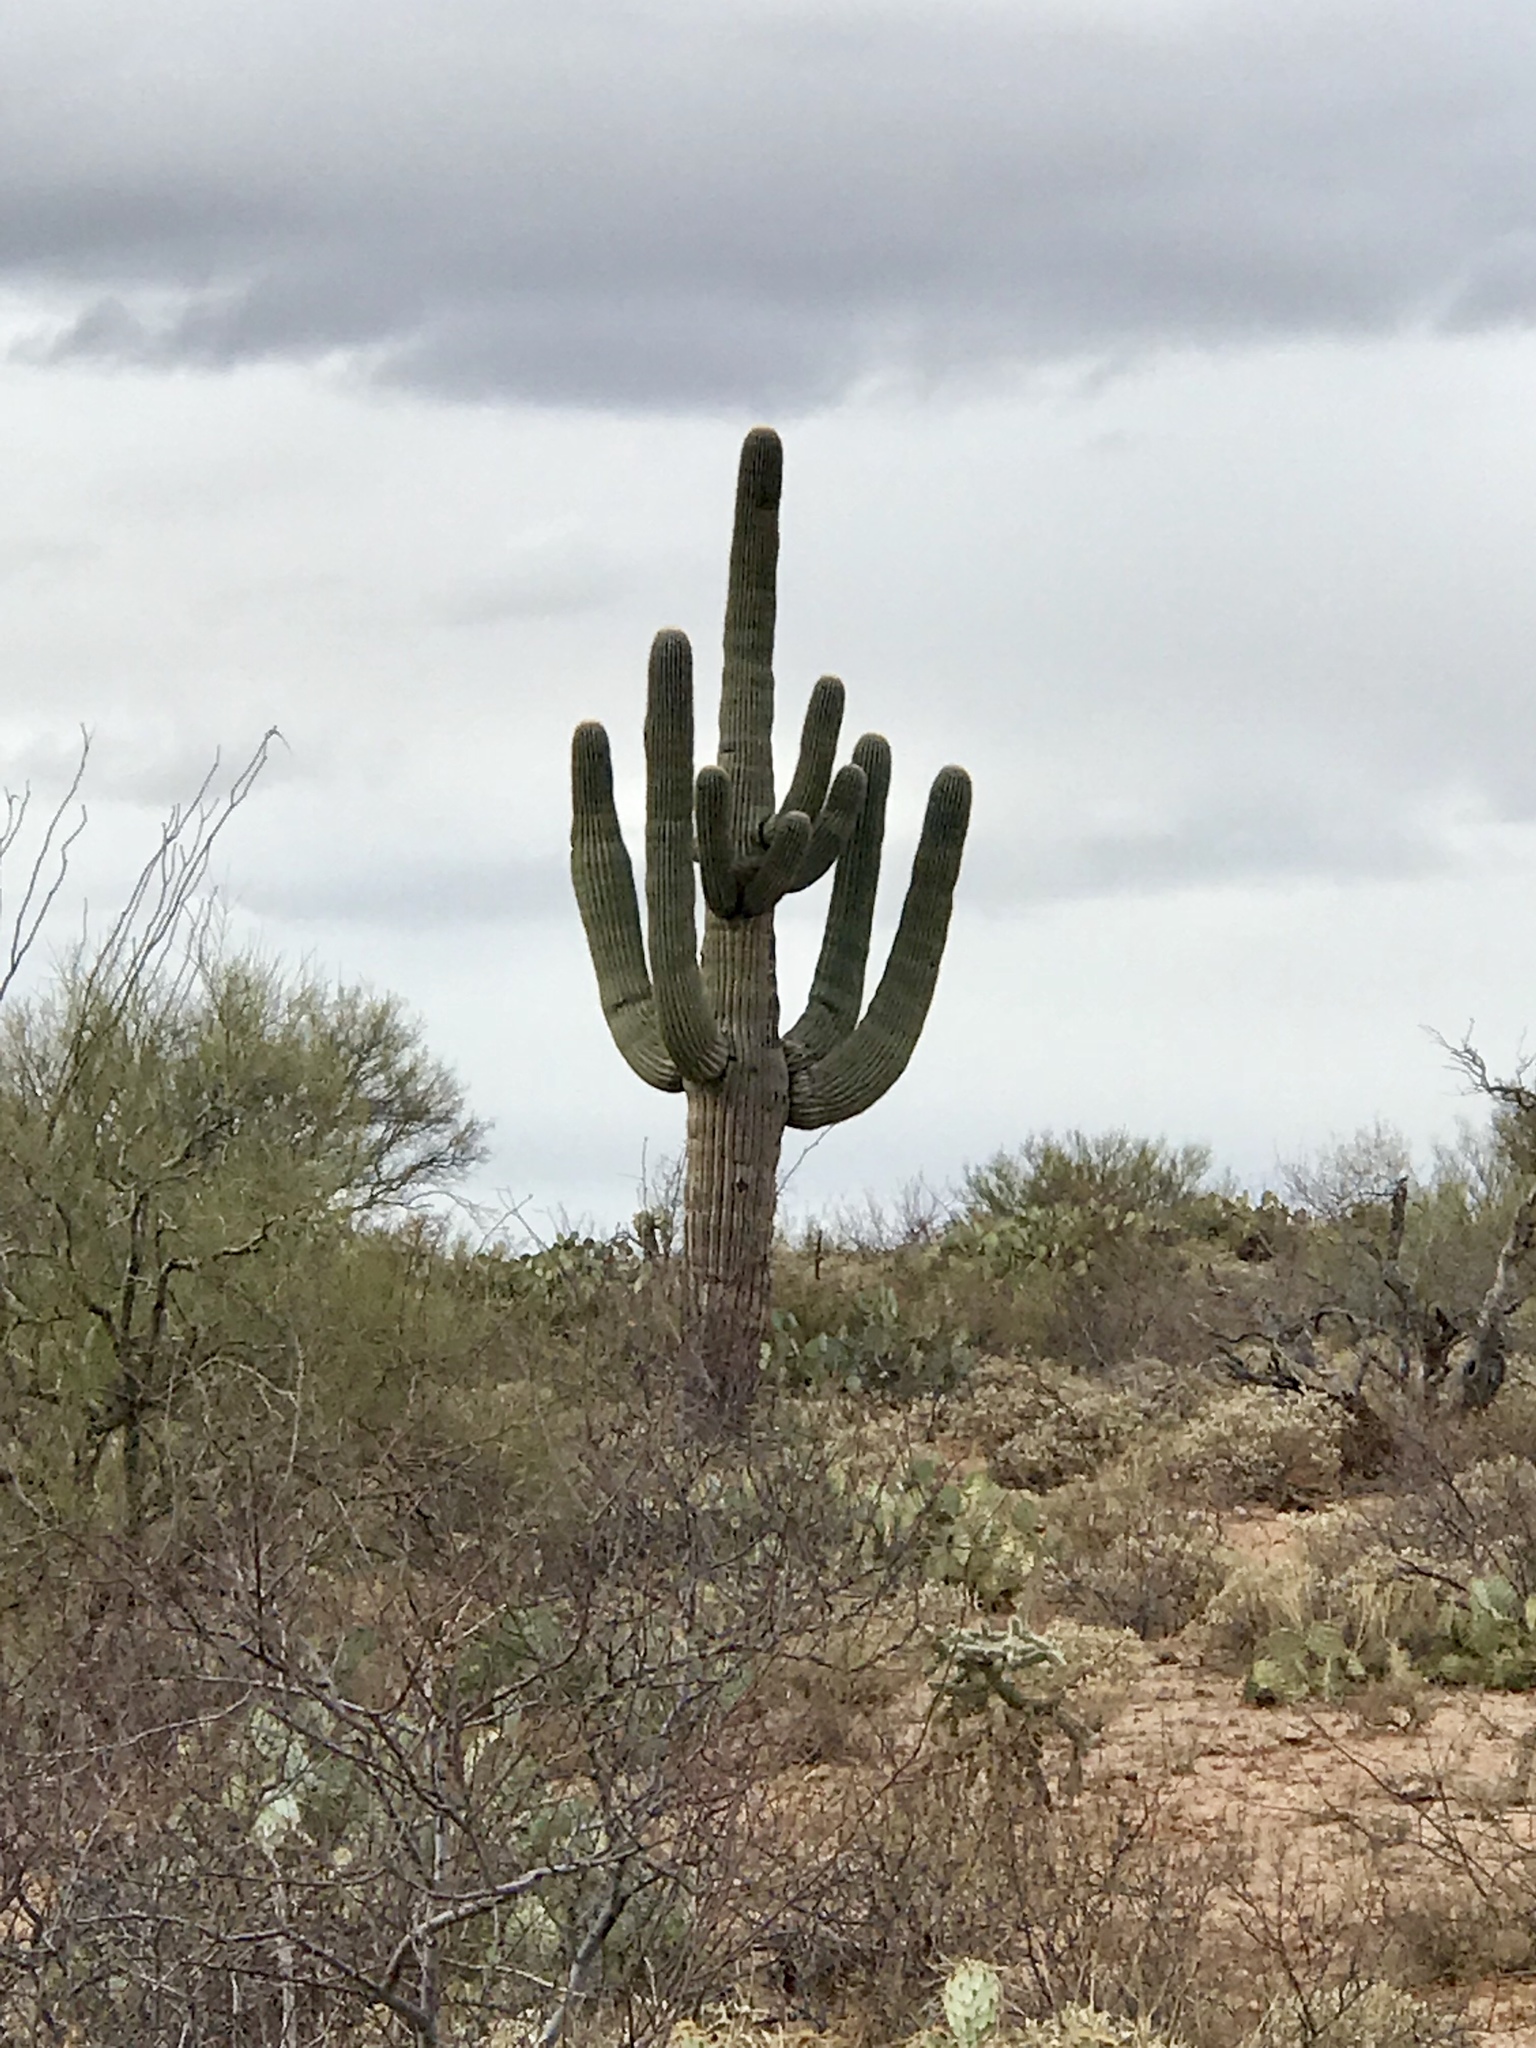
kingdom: Plantae
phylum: Tracheophyta
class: Magnoliopsida
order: Caryophyllales
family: Cactaceae
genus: Carnegiea
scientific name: Carnegiea gigantea
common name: Saguaro
